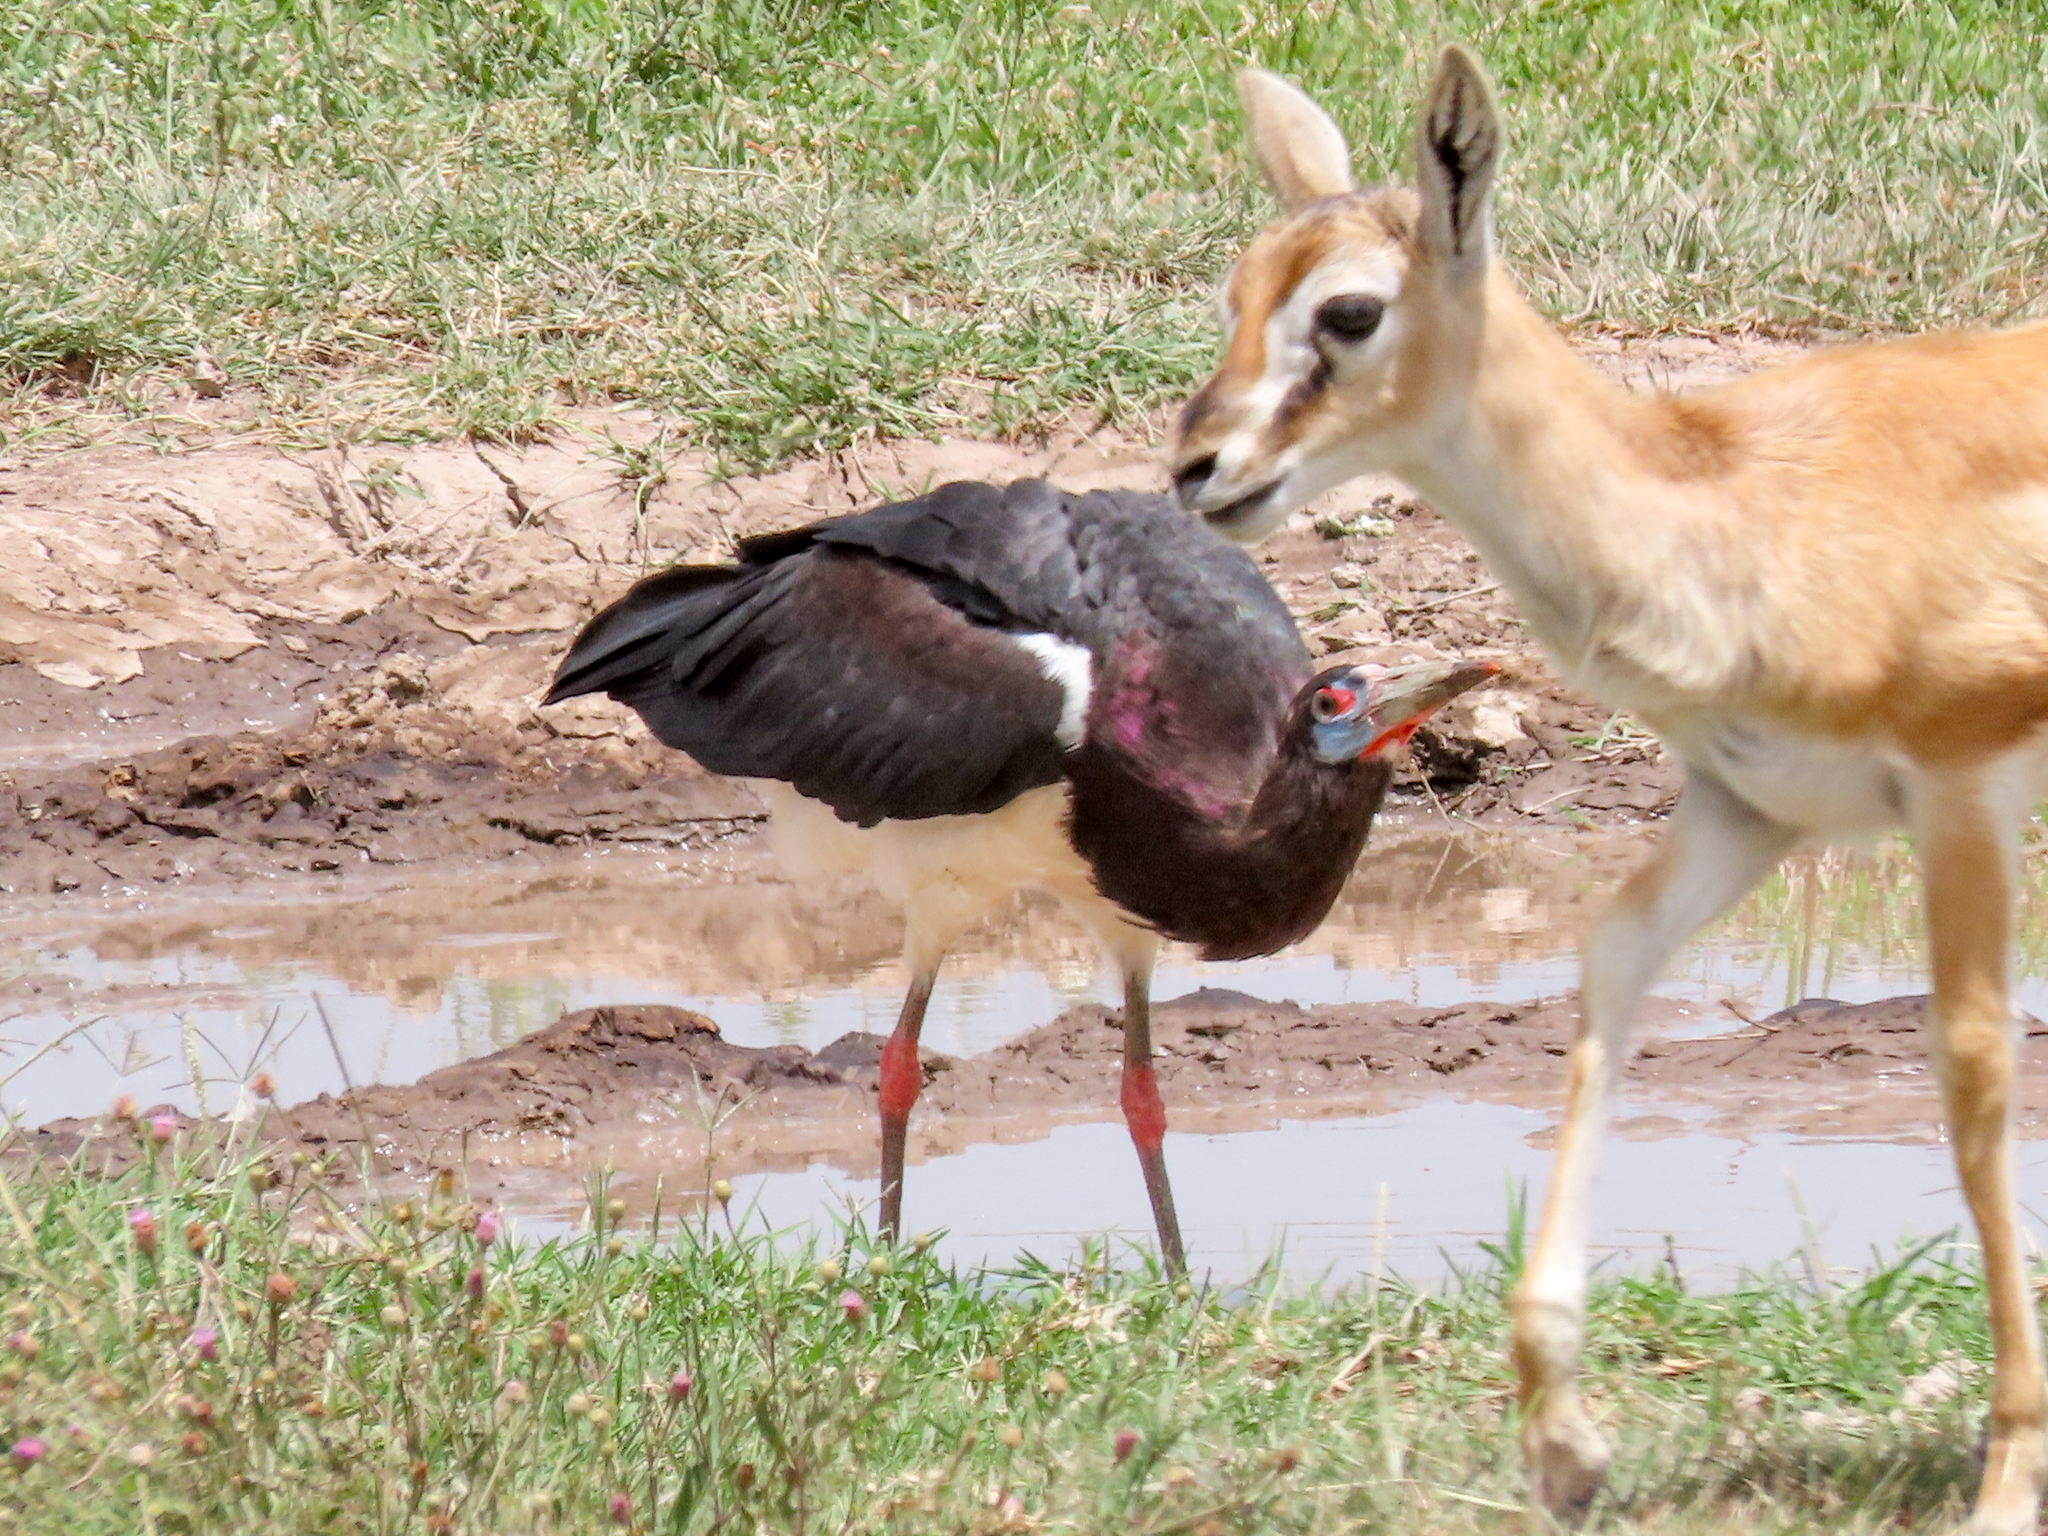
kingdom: Animalia
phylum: Chordata
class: Aves
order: Ciconiiformes
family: Ciconiidae
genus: Ciconia
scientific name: Ciconia abdimii
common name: Abdim's stork
